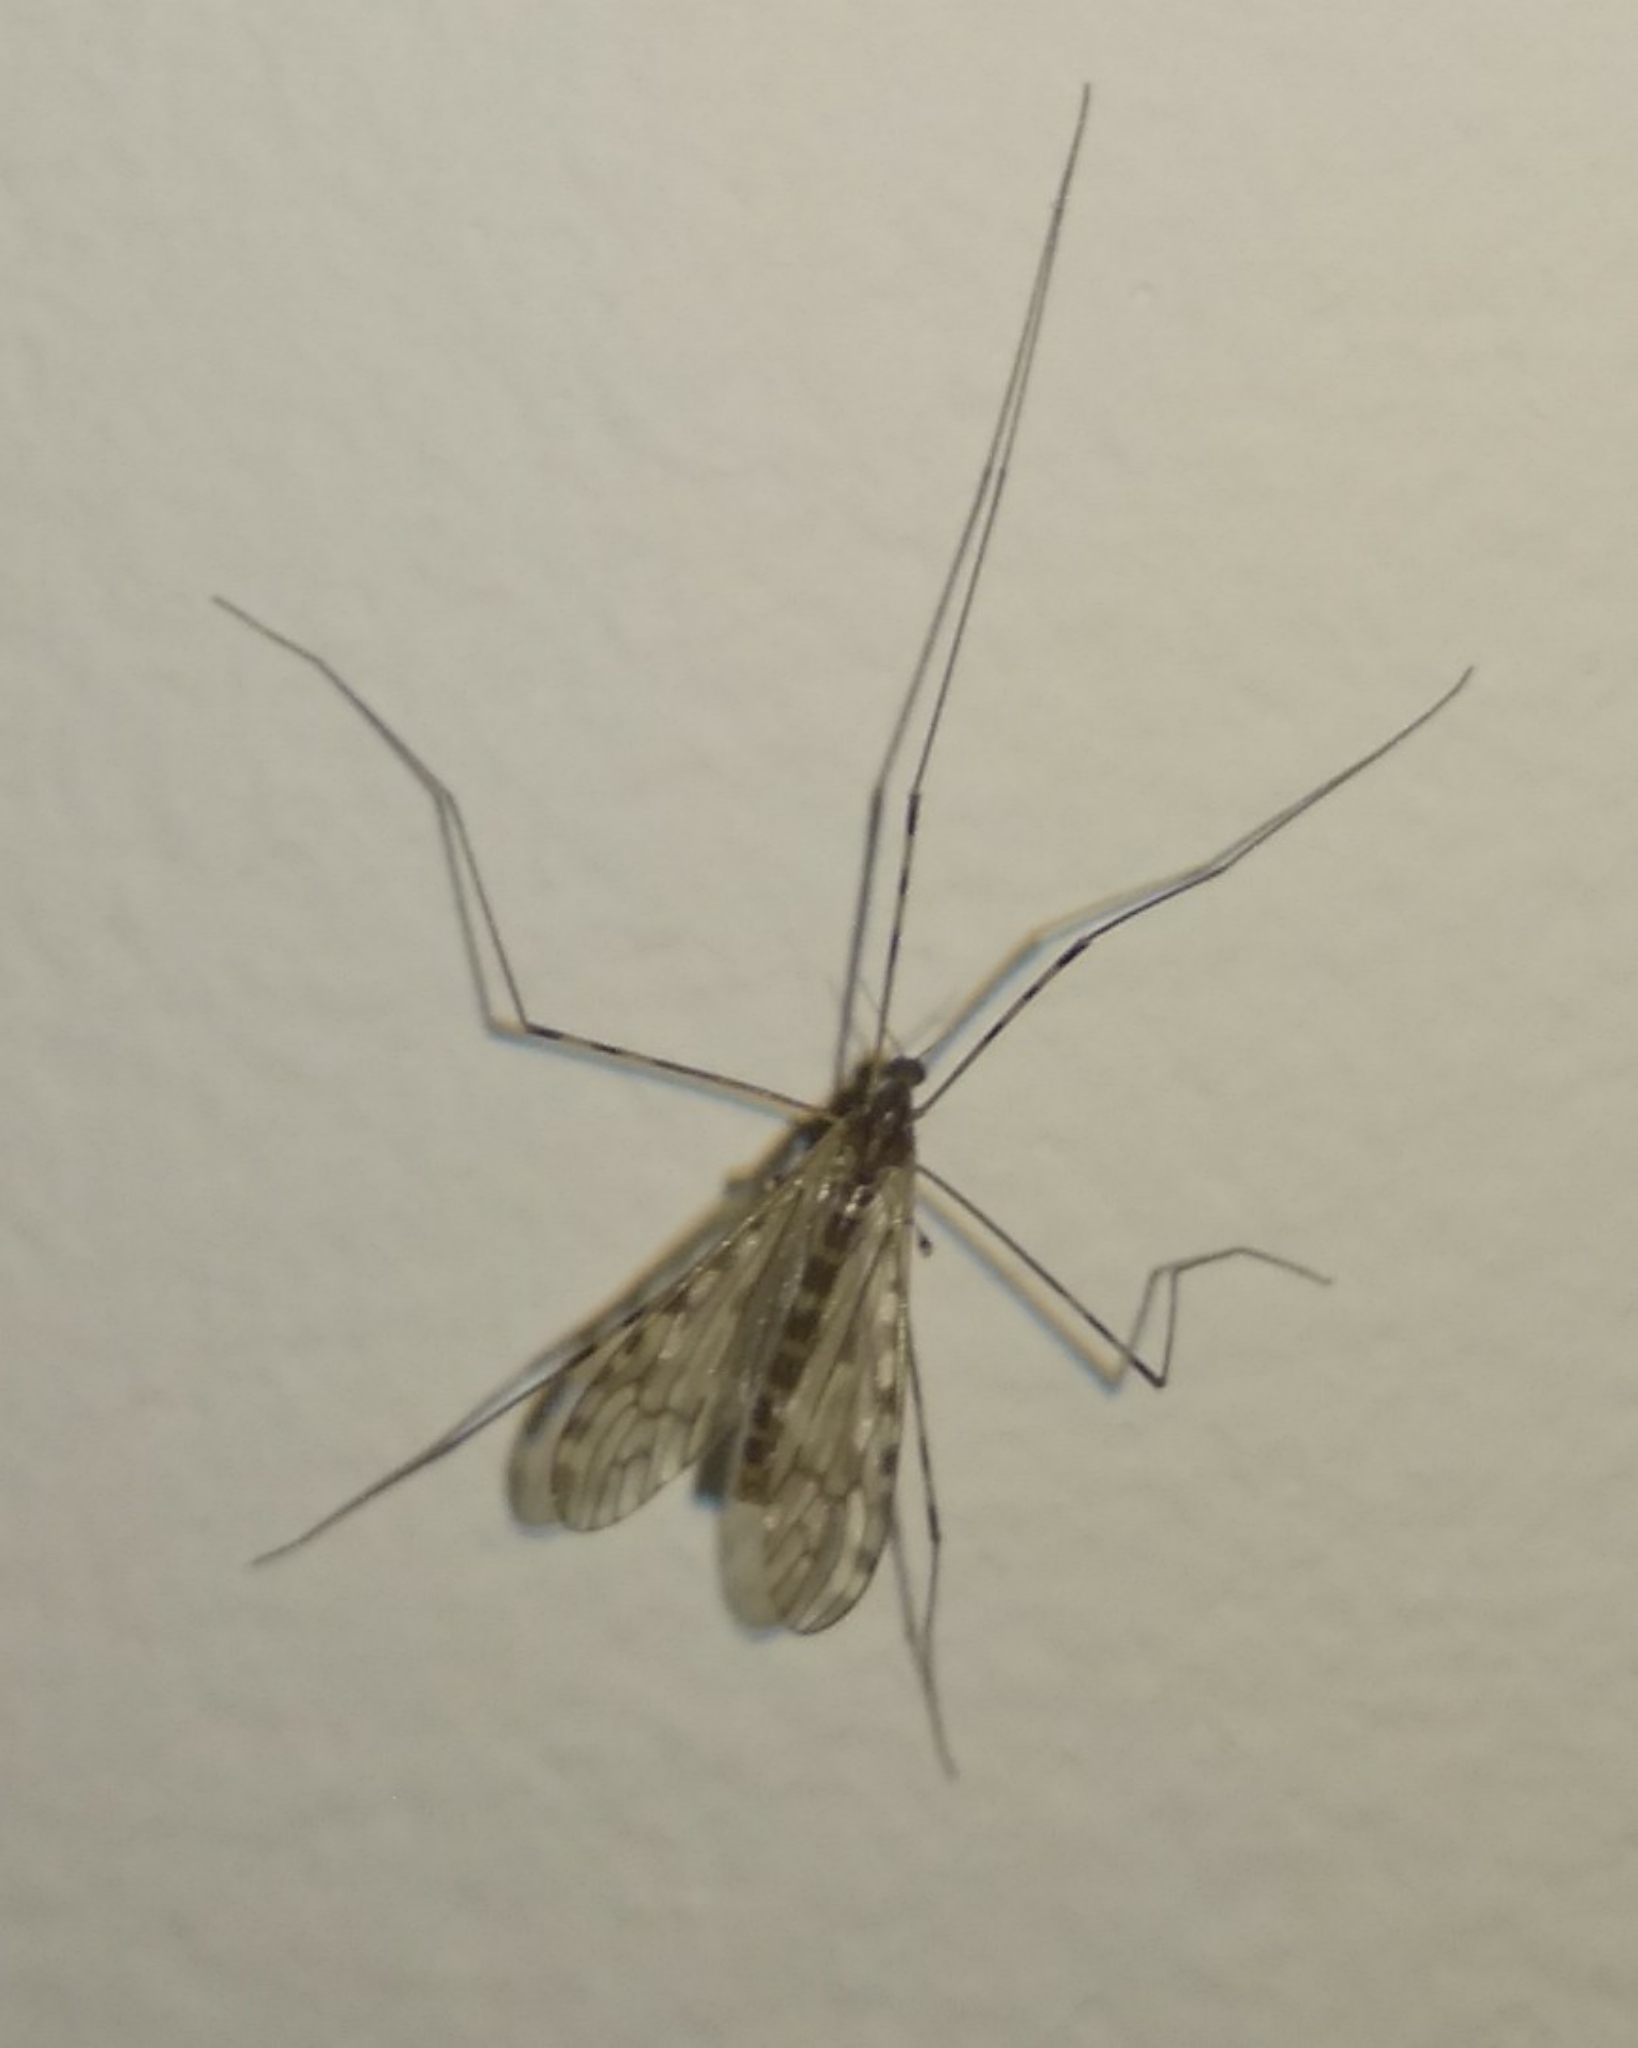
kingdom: Animalia
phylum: Arthropoda
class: Insecta
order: Diptera
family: Limoniidae
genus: Limonia
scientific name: Limonia nubeculosa
